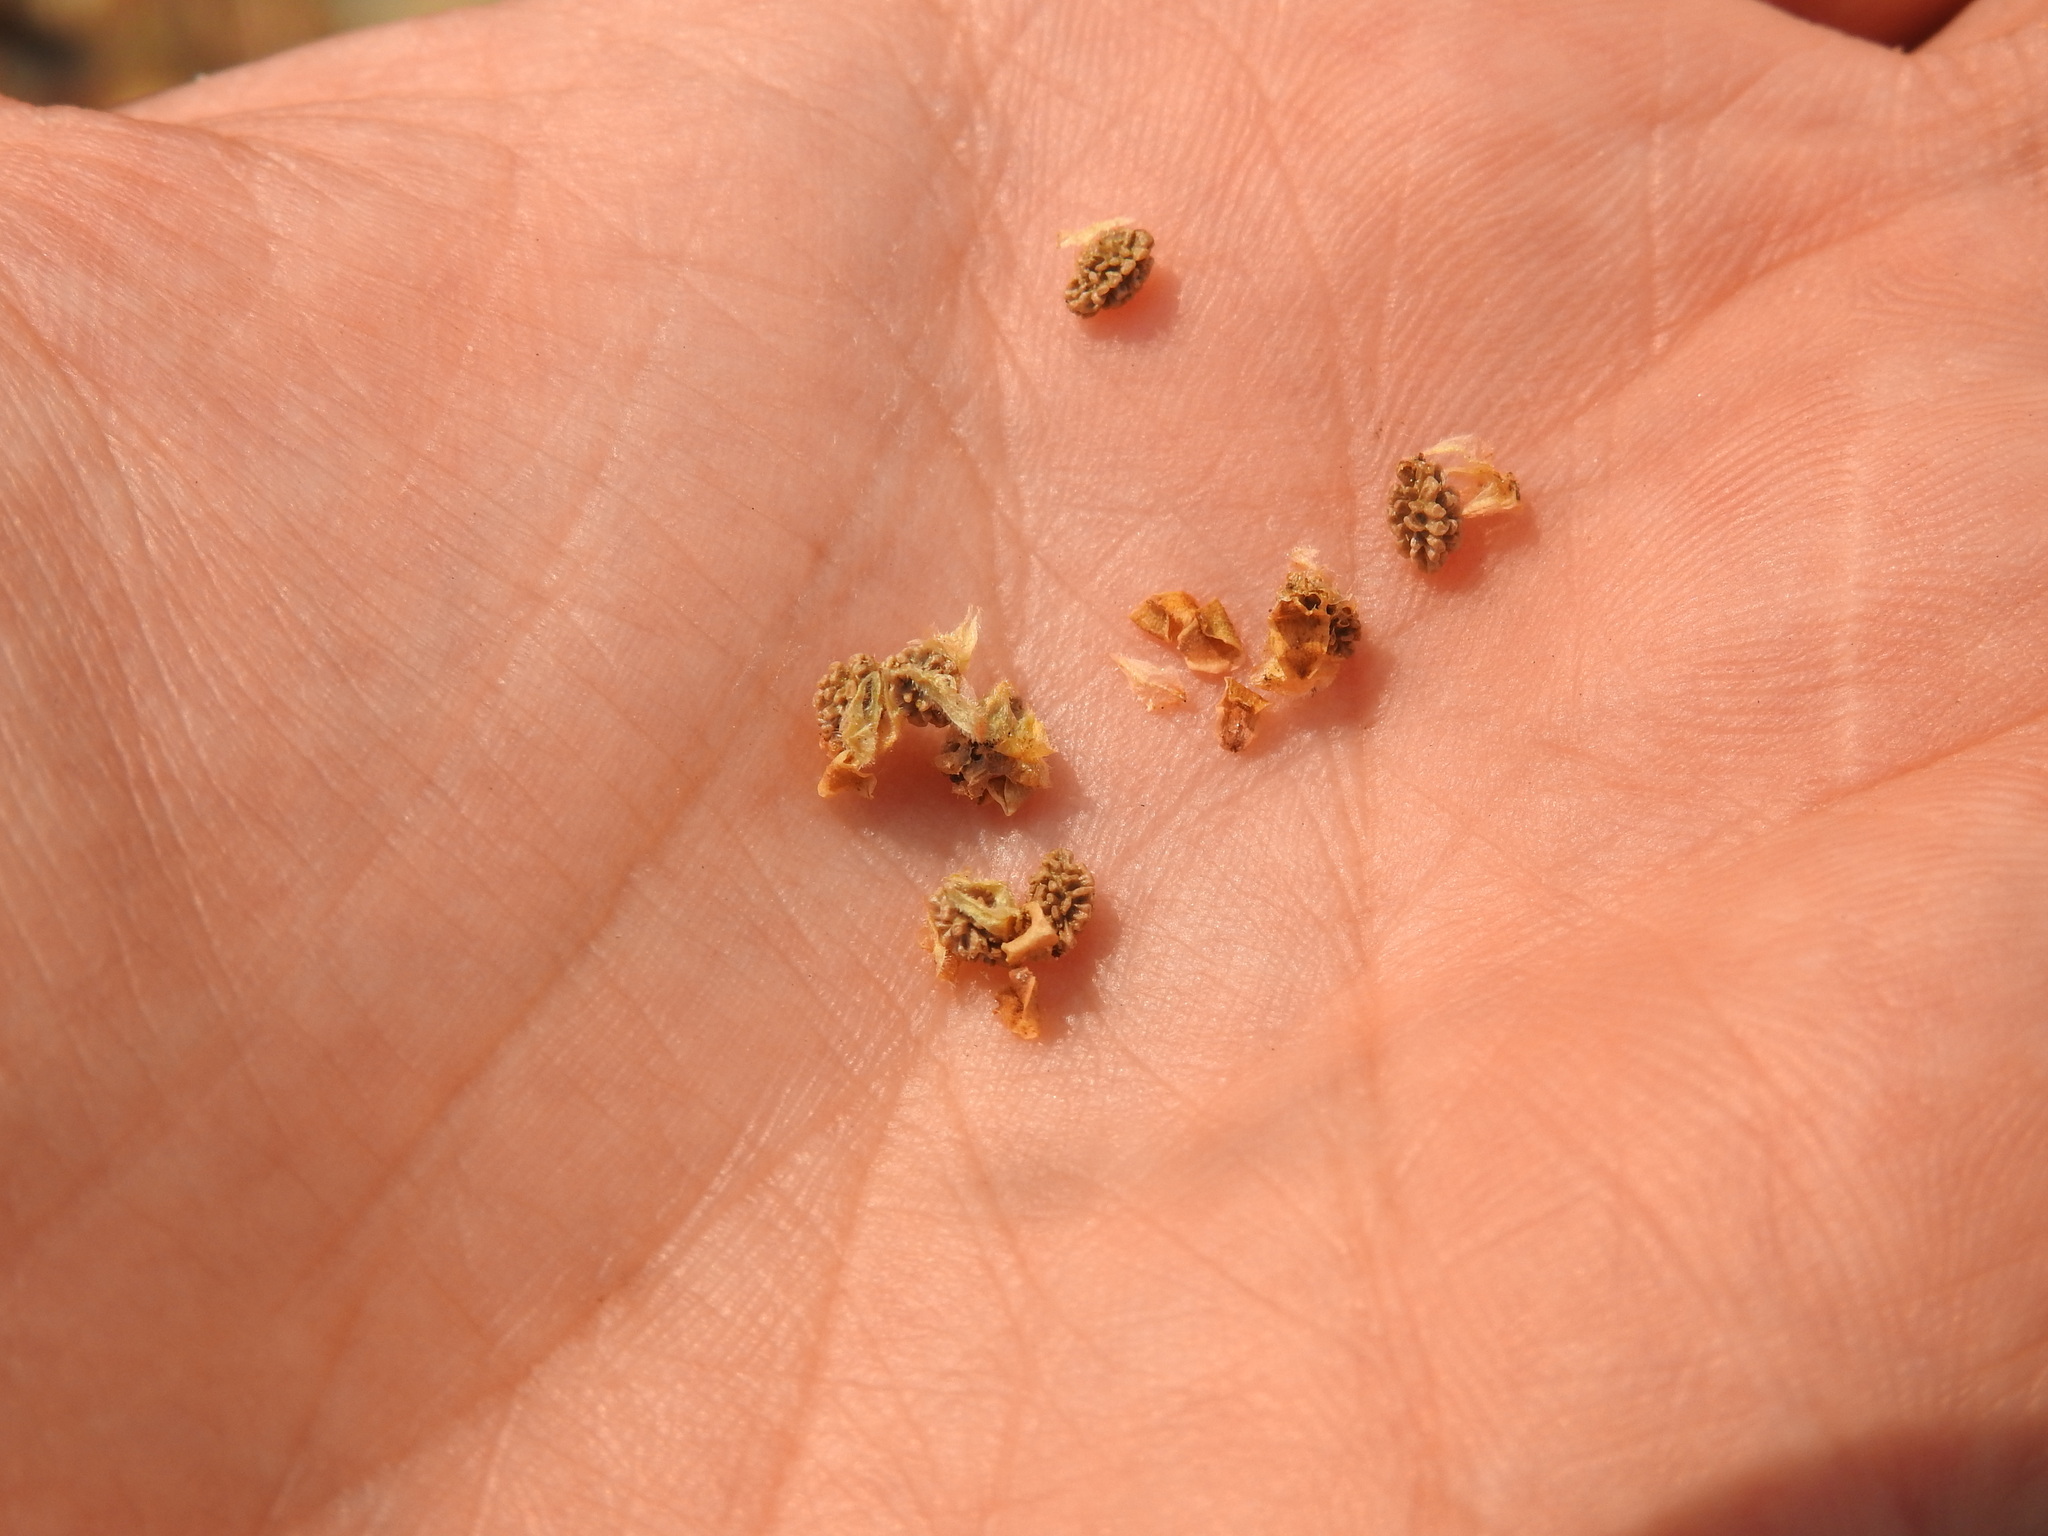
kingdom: Plantae
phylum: Tracheophyta
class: Magnoliopsida
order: Rosales
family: Rosaceae
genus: Poterium
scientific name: Poterium
